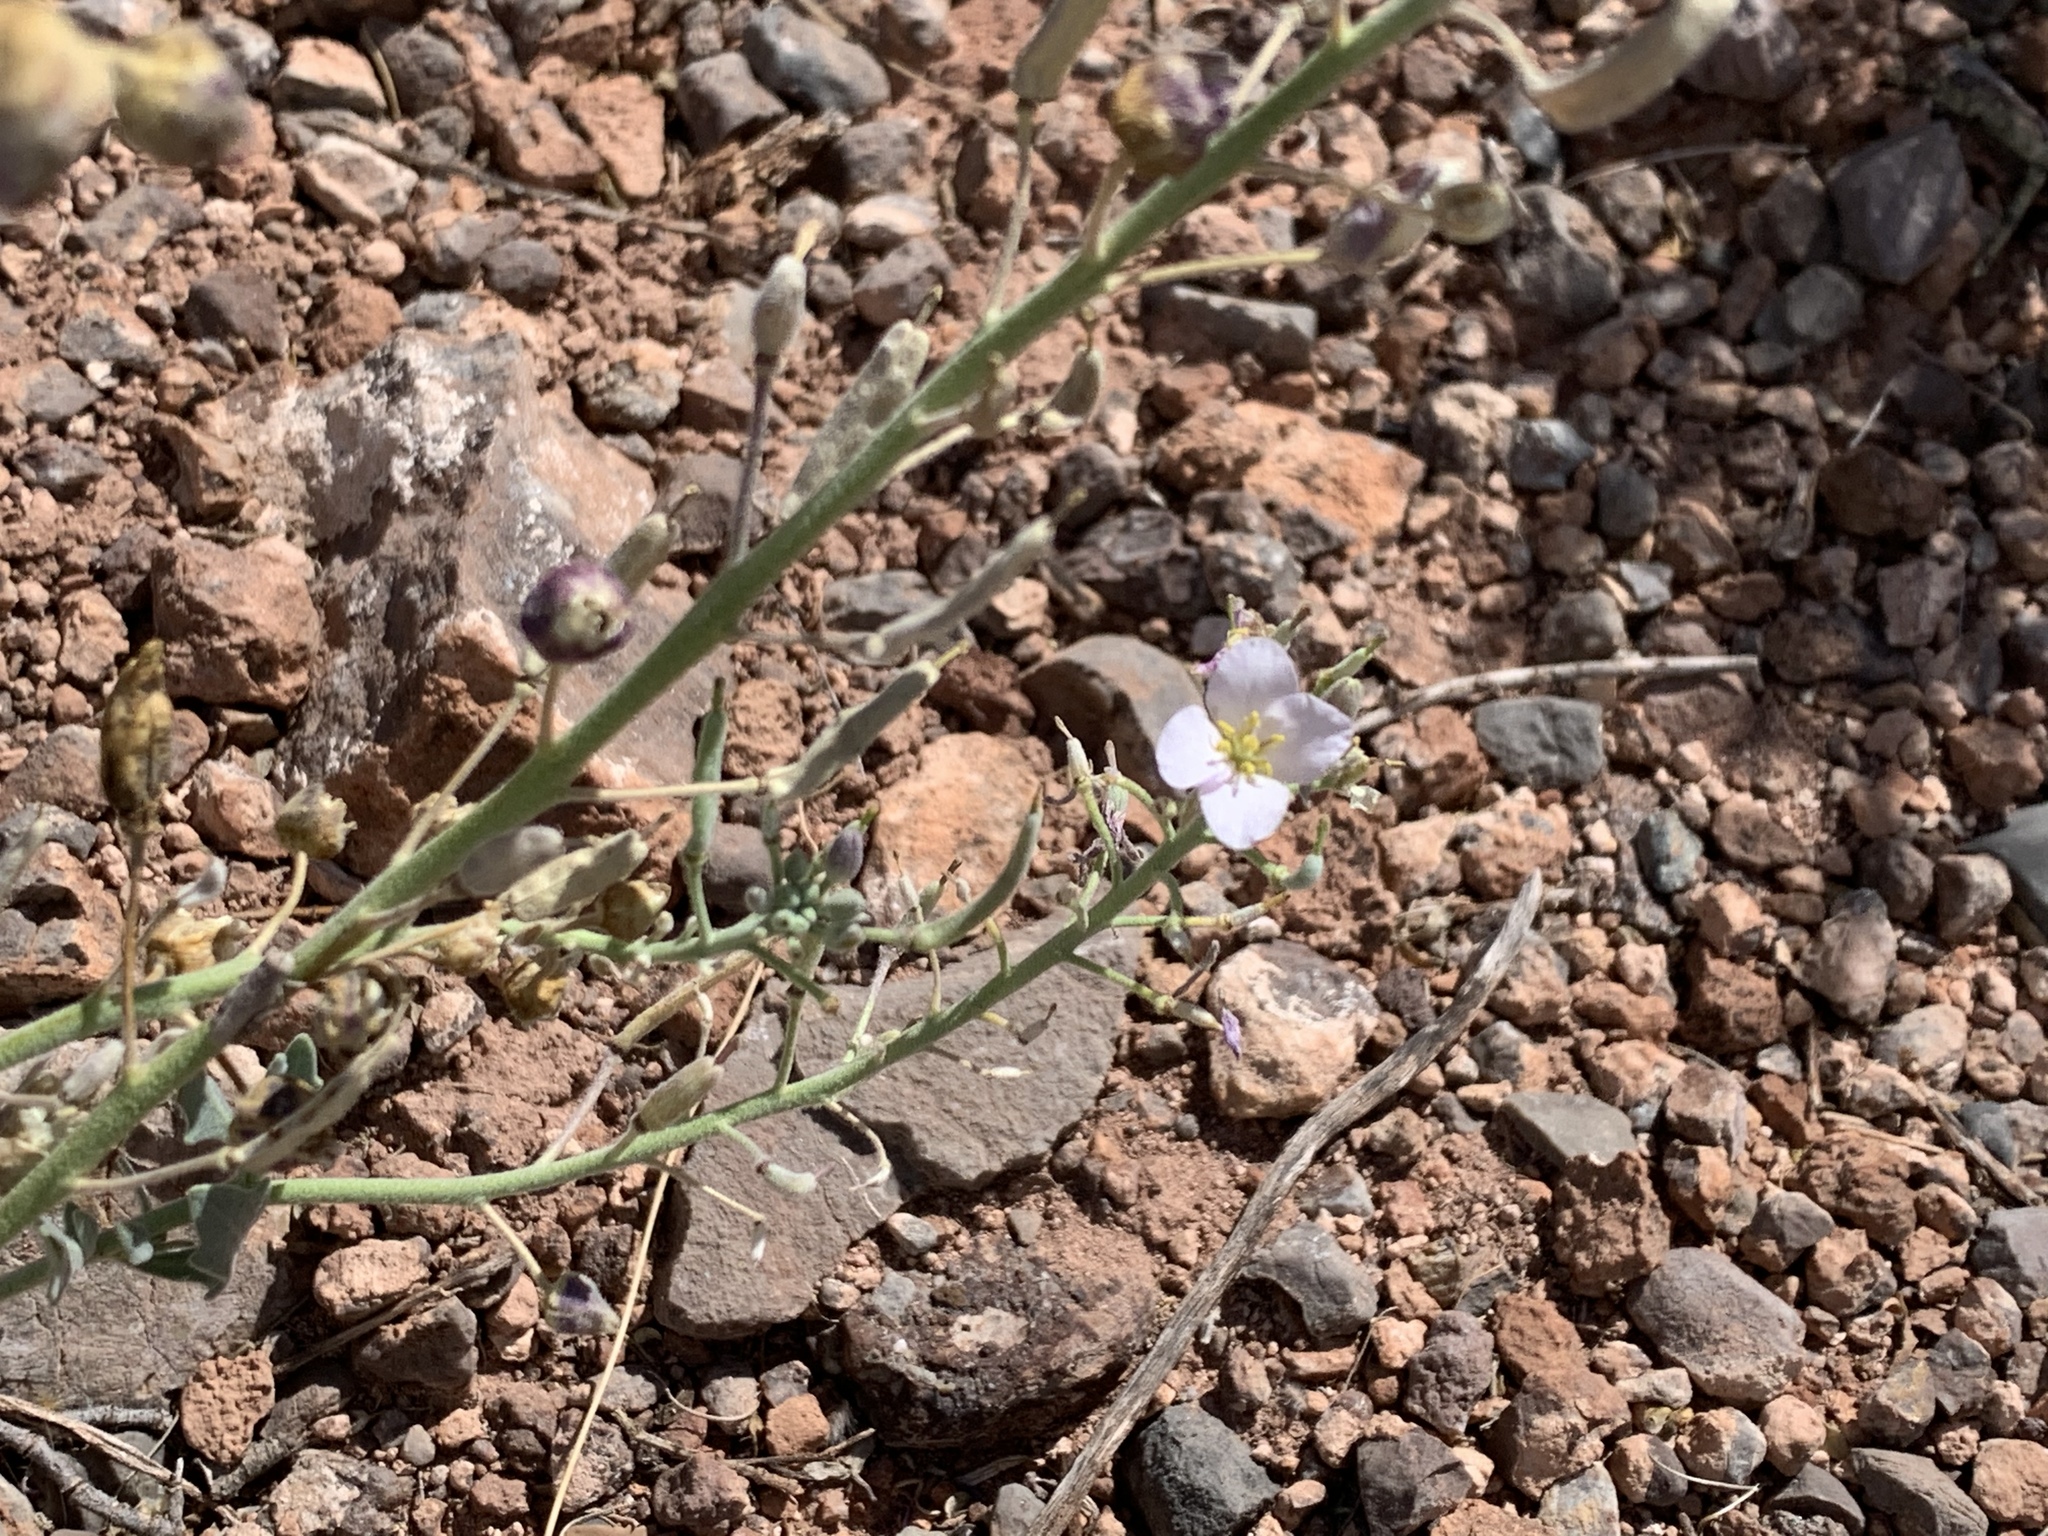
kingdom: Plantae
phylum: Tracheophyta
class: Magnoliopsida
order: Brassicales
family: Brassicaceae
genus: Nerisyrenia
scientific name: Nerisyrenia camporum
